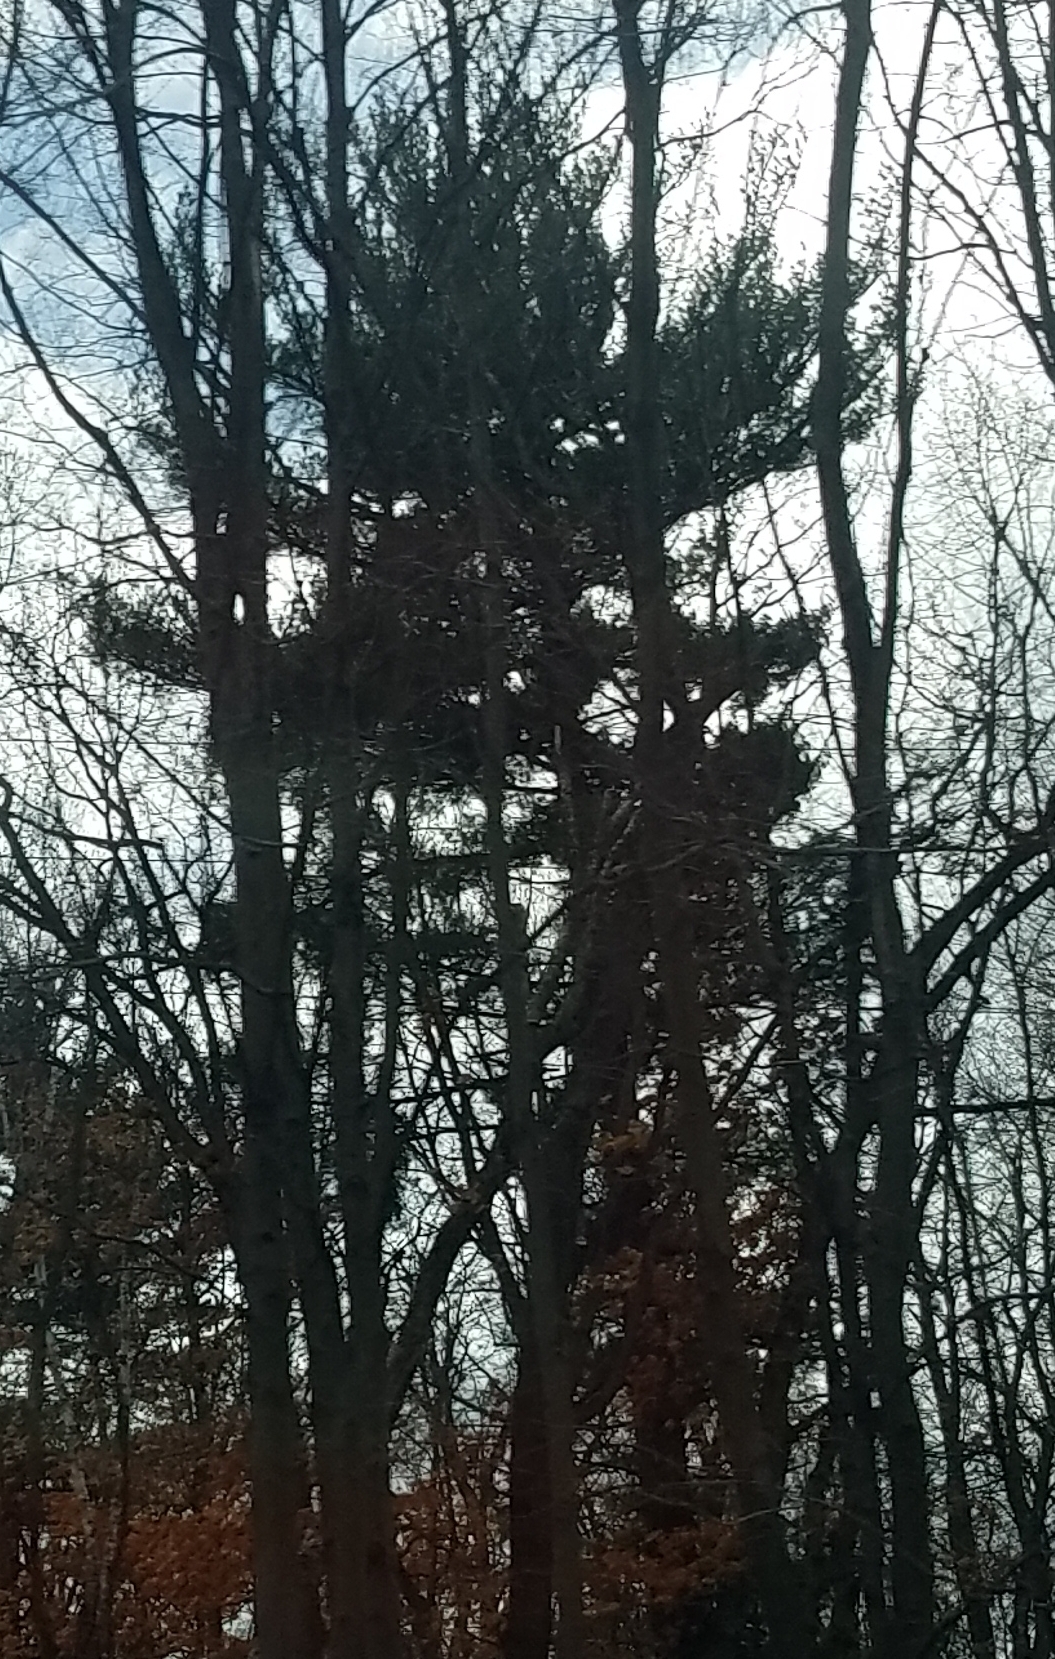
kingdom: Plantae
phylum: Tracheophyta
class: Pinopsida
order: Pinales
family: Pinaceae
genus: Pinus
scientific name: Pinus strobus
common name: Weymouth pine
